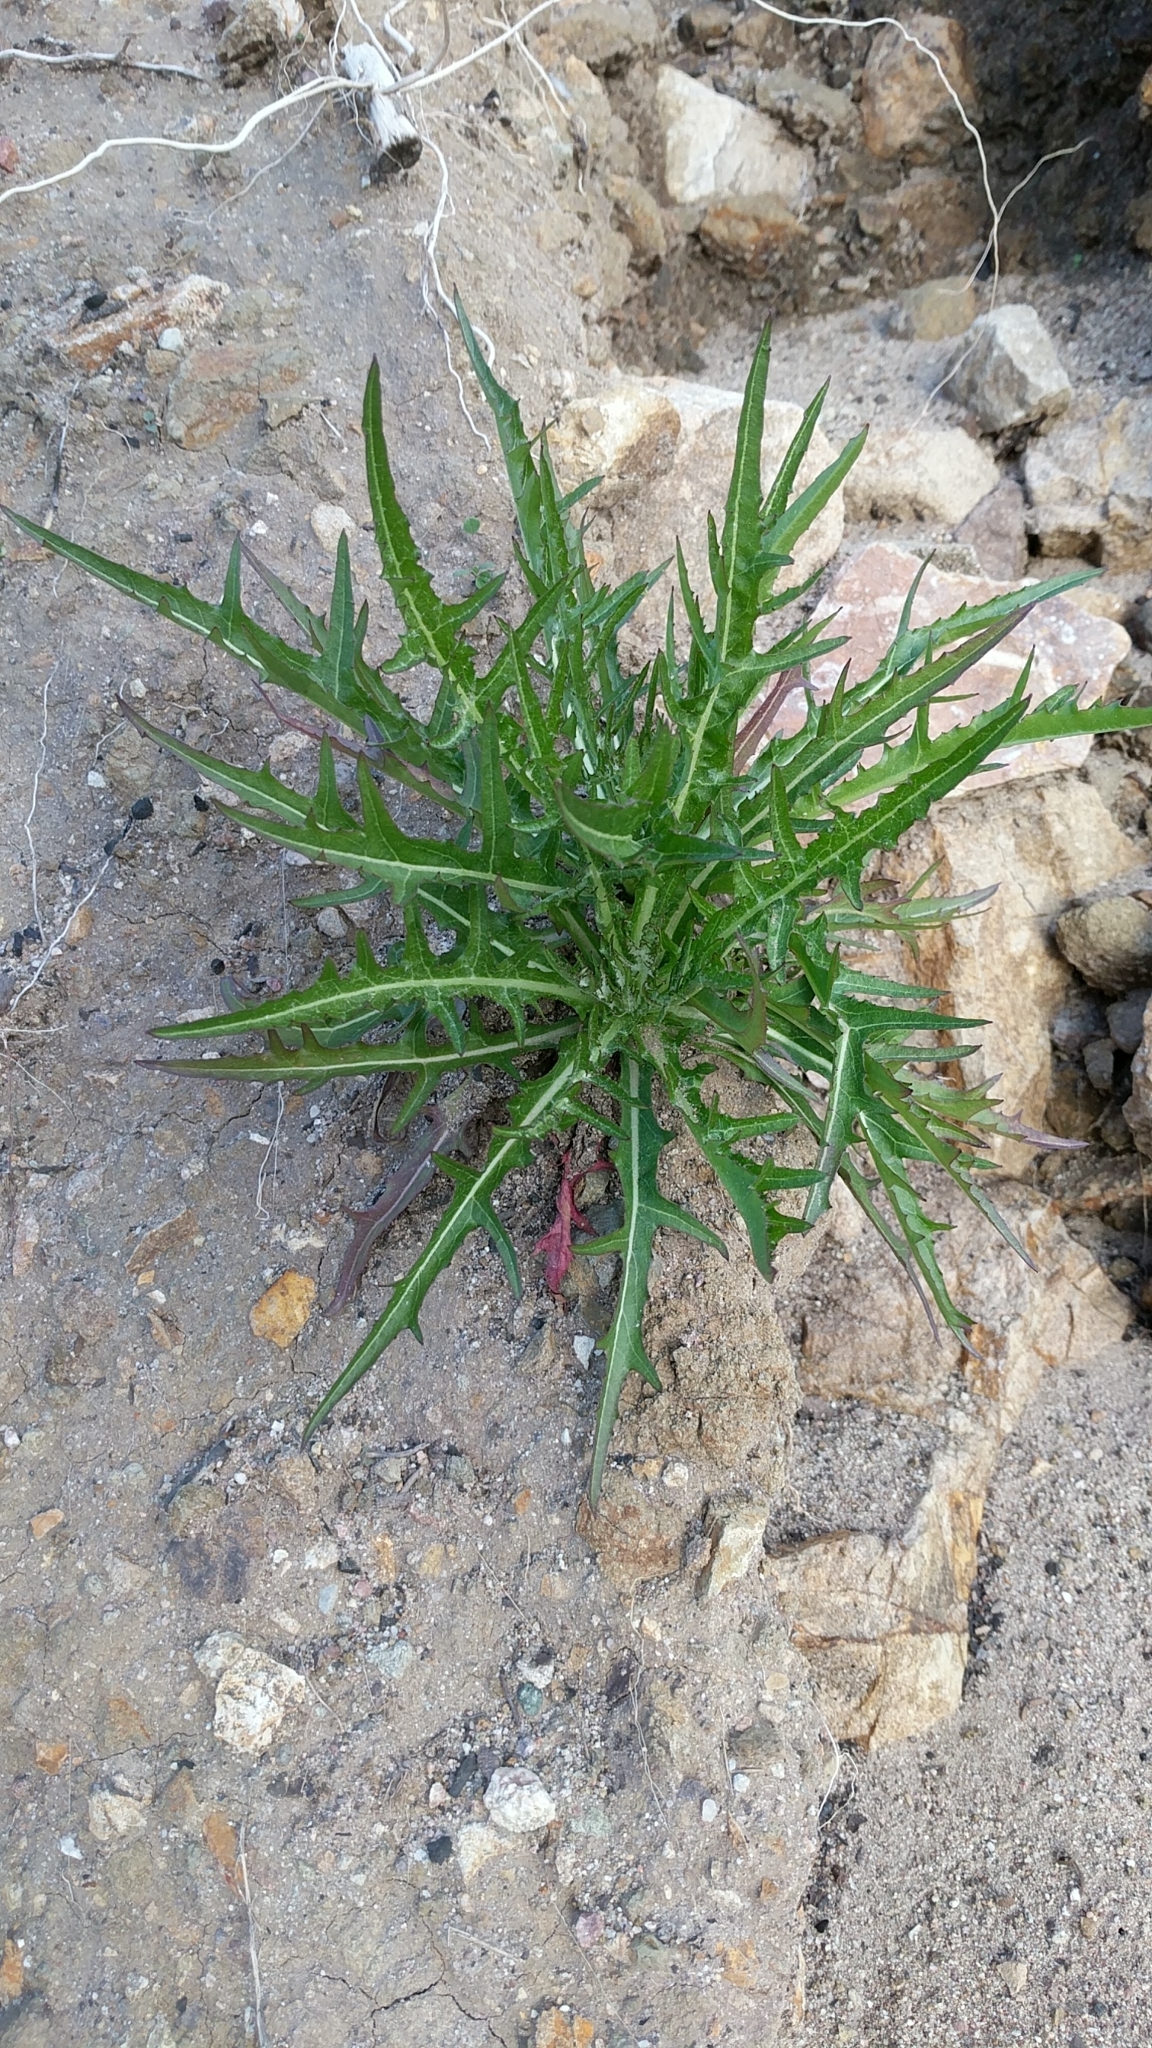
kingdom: Plantae
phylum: Tracheophyta
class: Magnoliopsida
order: Asterales
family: Asteraceae
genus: Malacothrix
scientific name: Malacothrix saxatilis
